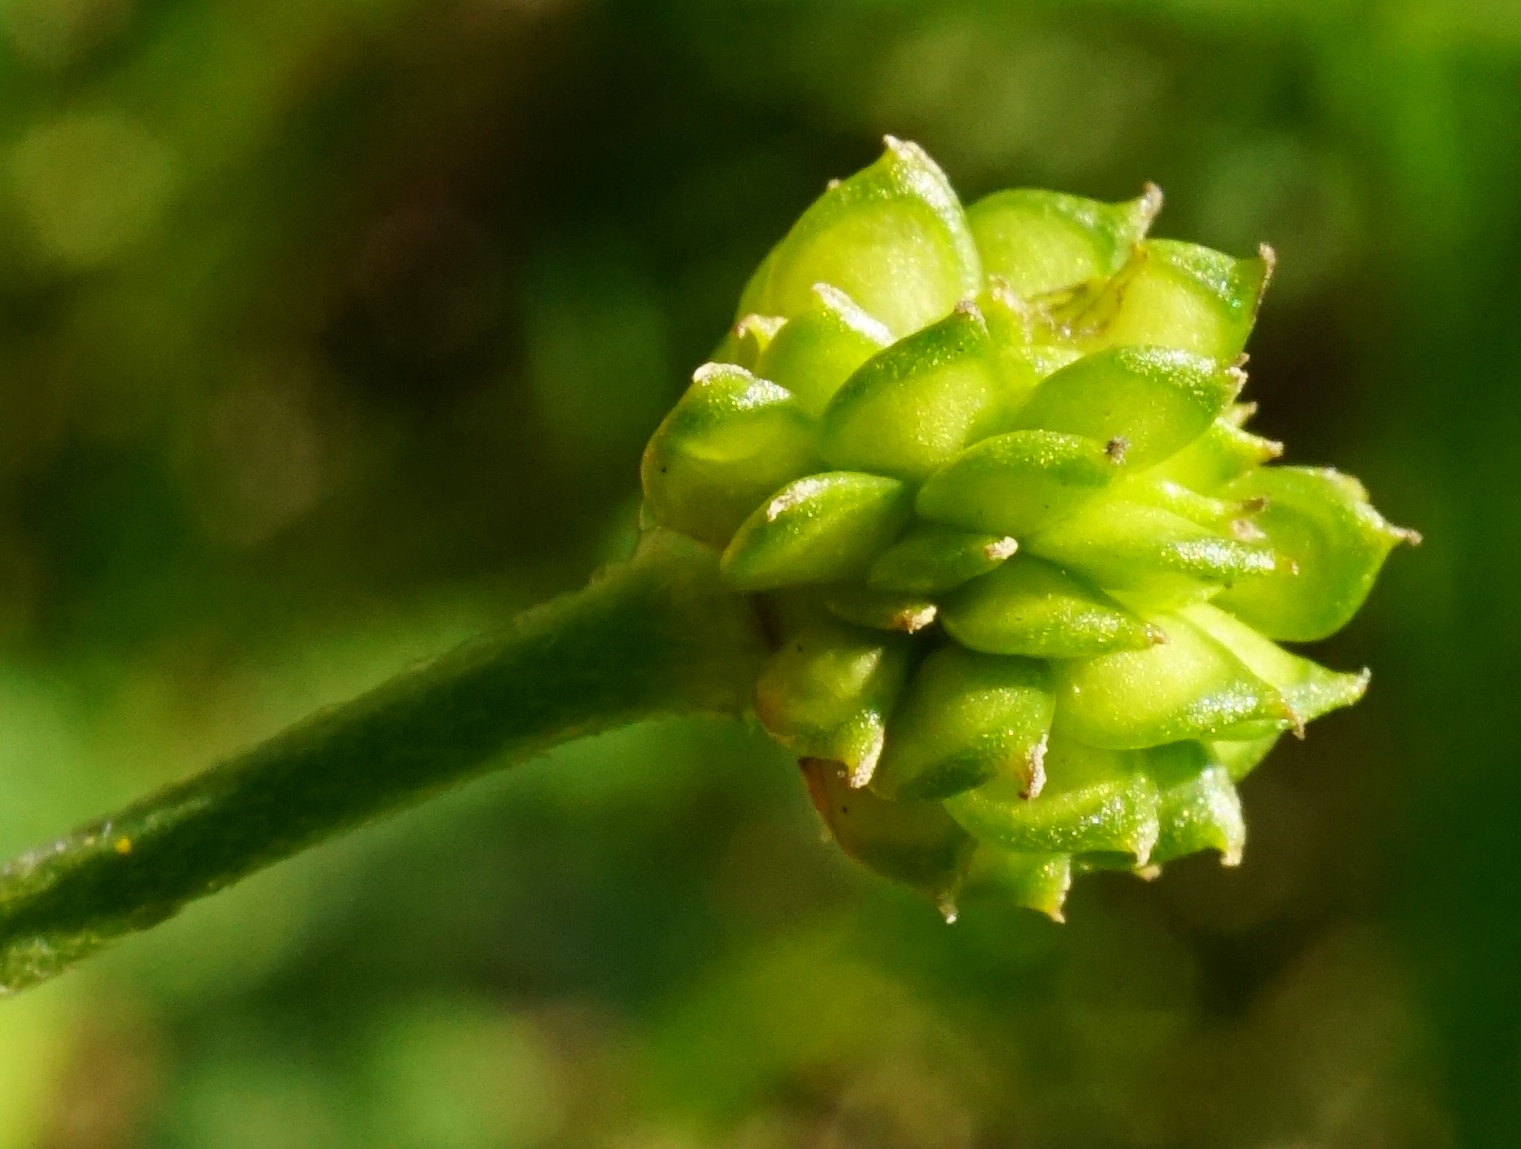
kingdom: Plantae
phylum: Tracheophyta
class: Magnoliopsida
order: Ranunculales
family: Ranunculaceae
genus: Ranunculus
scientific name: Ranunculus acris
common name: Meadow buttercup
